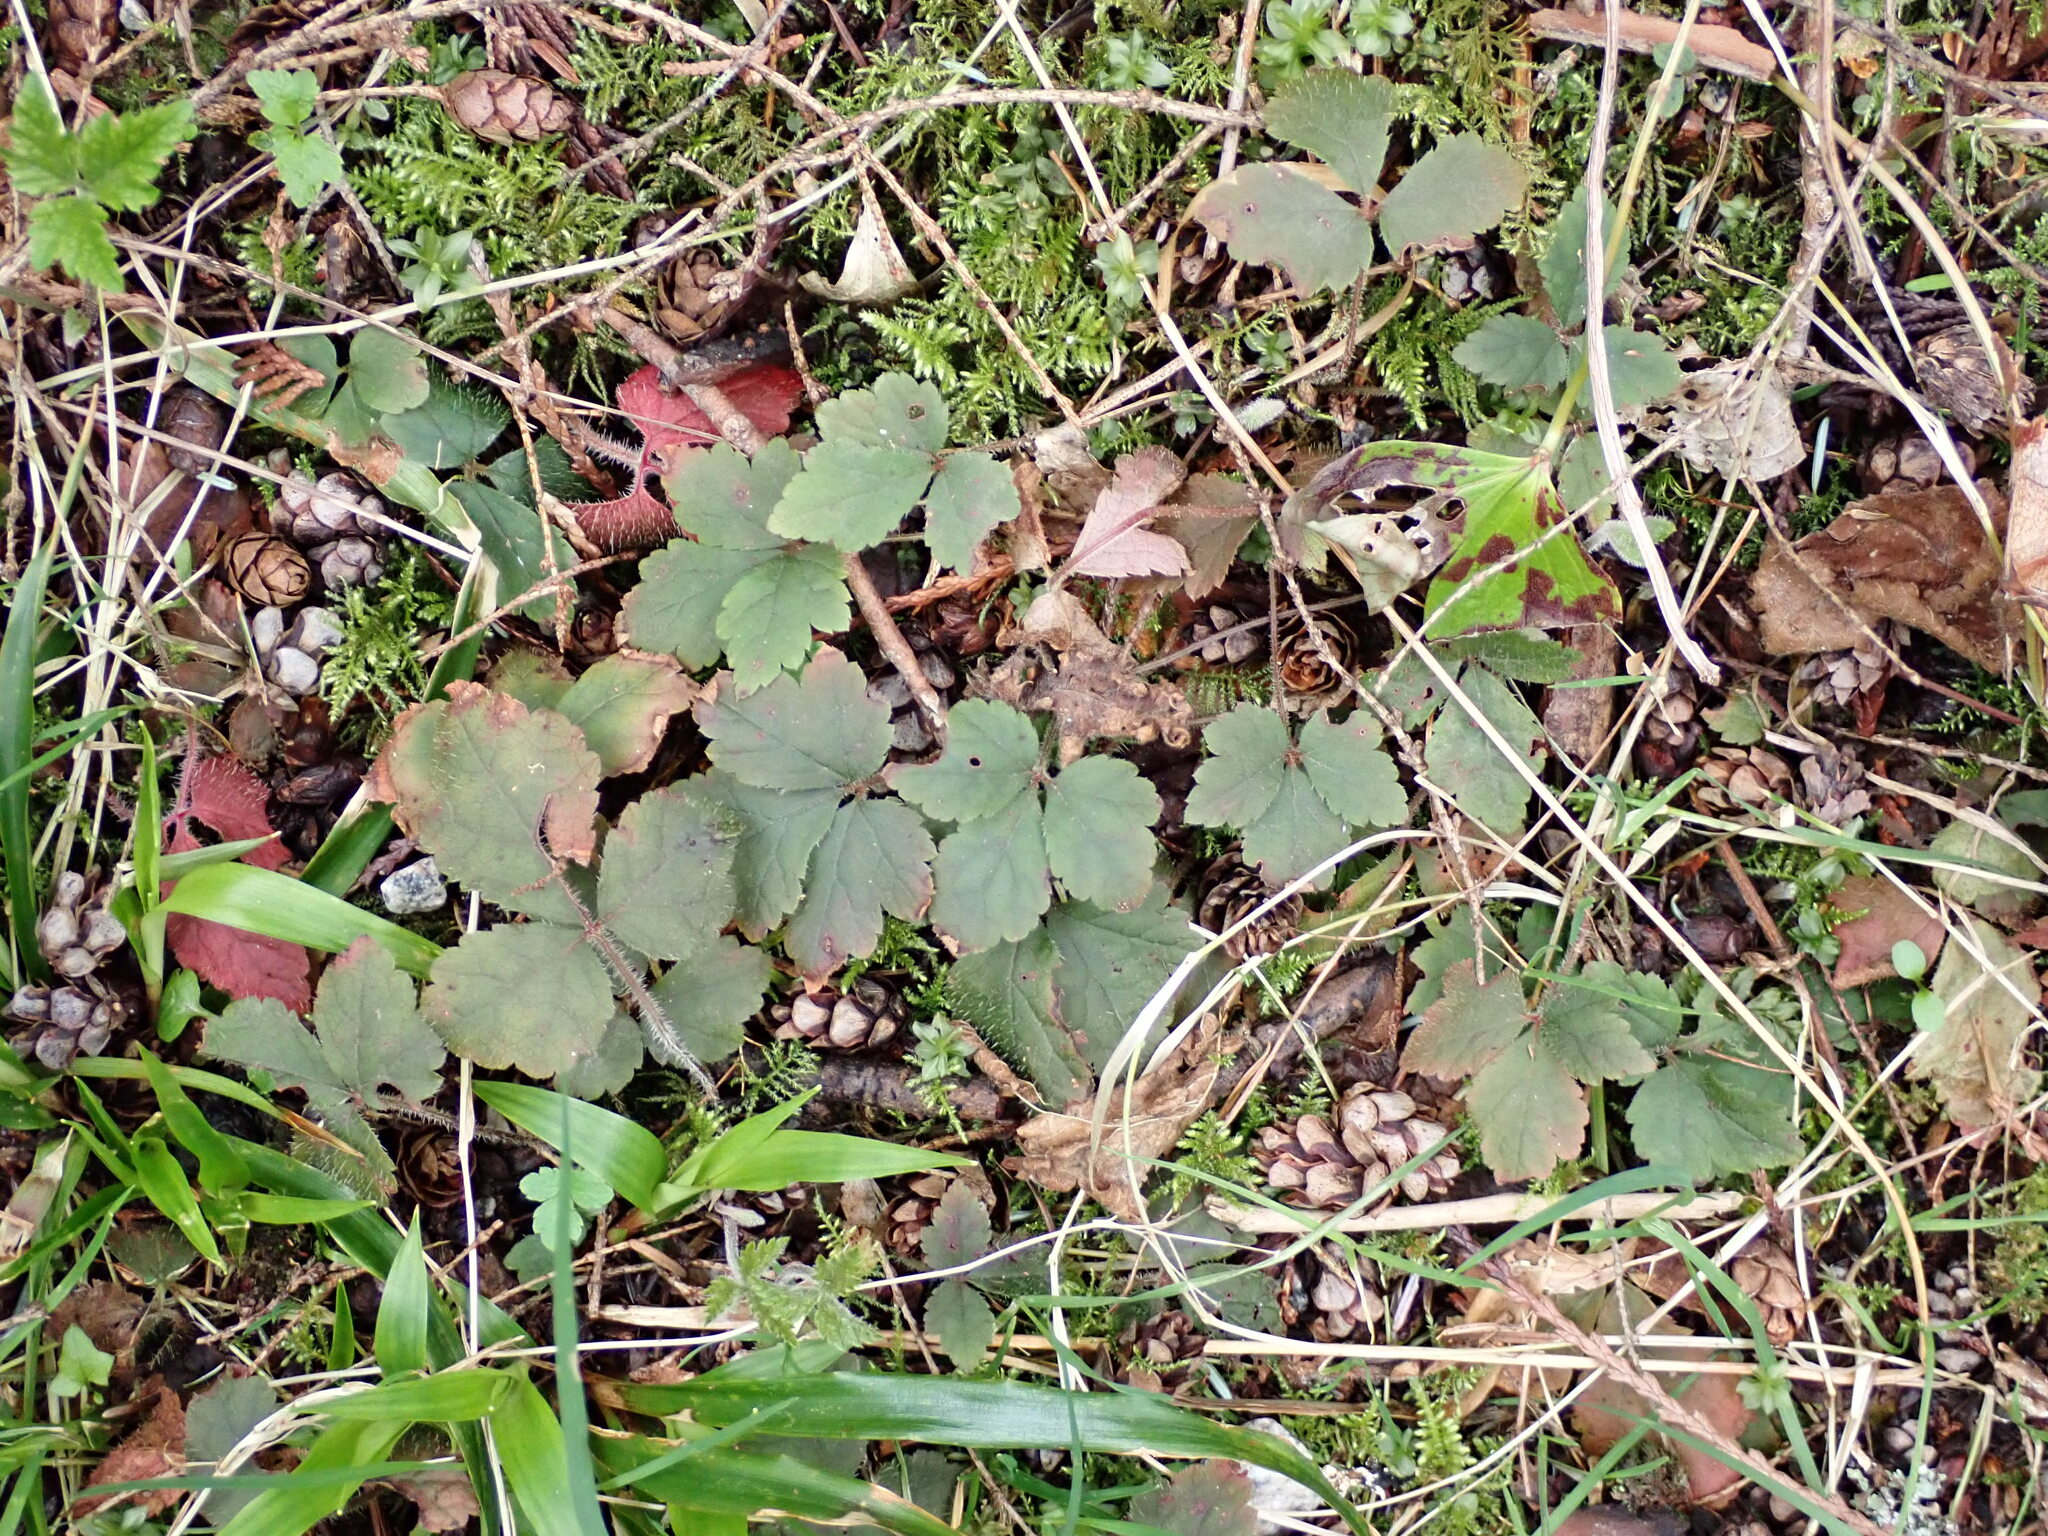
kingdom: Plantae
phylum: Tracheophyta
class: Magnoliopsida
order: Saxifragales
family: Saxifragaceae
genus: Tiarella
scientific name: Tiarella trifoliata
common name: Sugar-scoop
